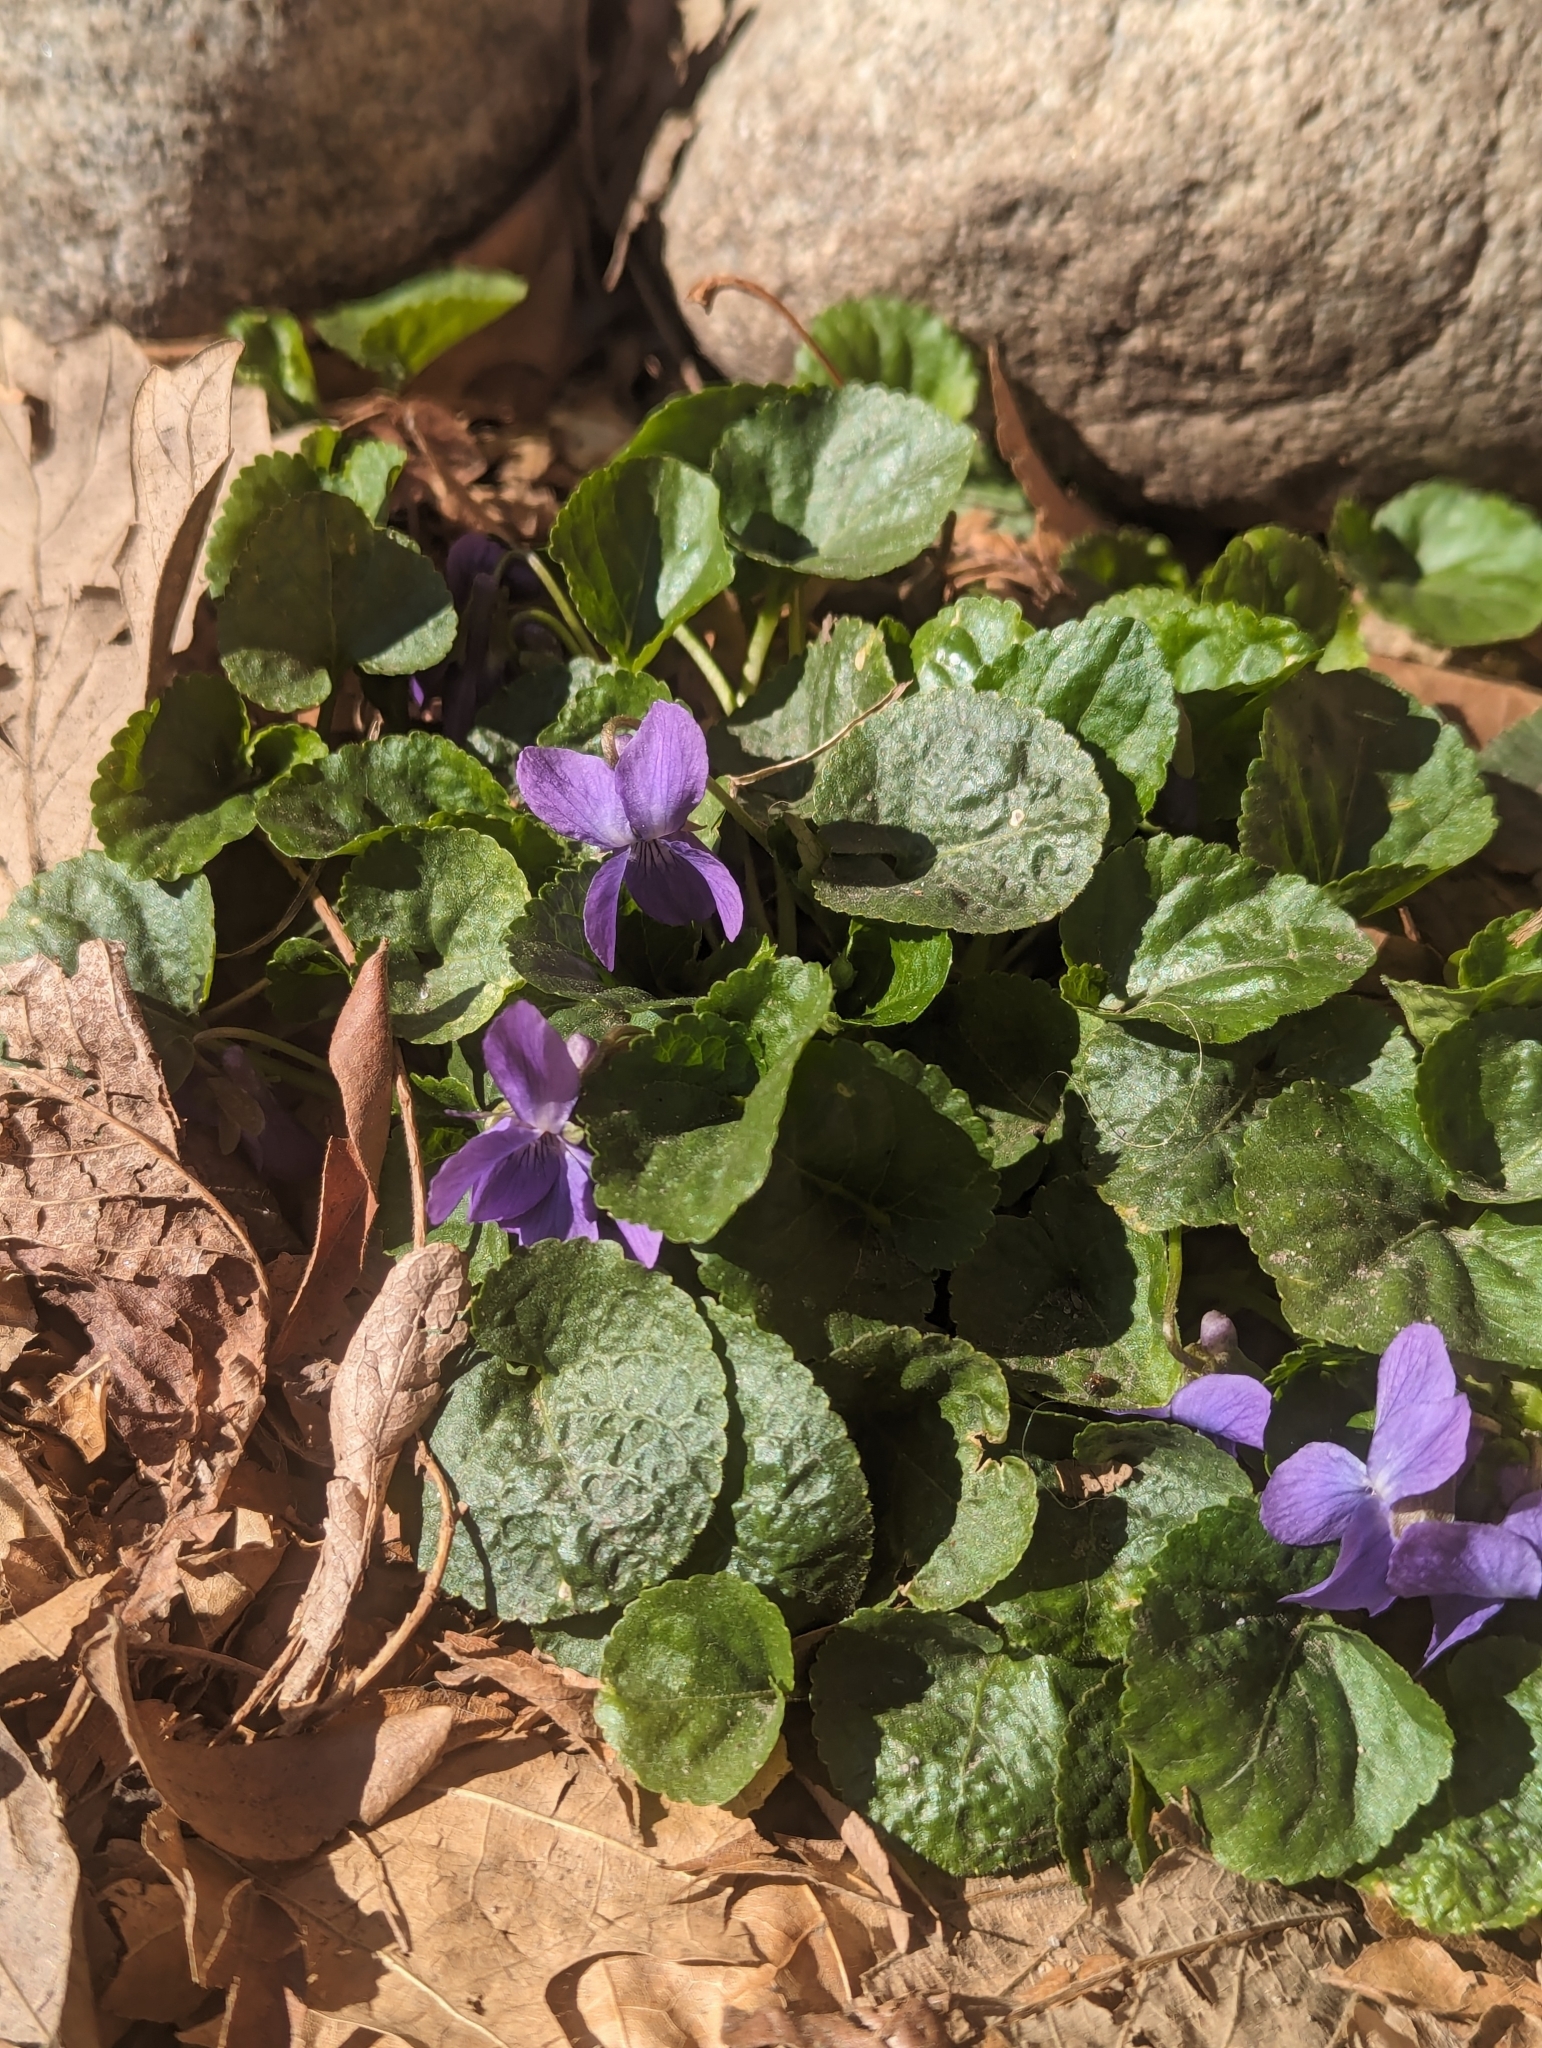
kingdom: Plantae
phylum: Tracheophyta
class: Magnoliopsida
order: Malpighiales
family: Violaceae
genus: Viola
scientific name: Viola odorata
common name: Sweet violet
